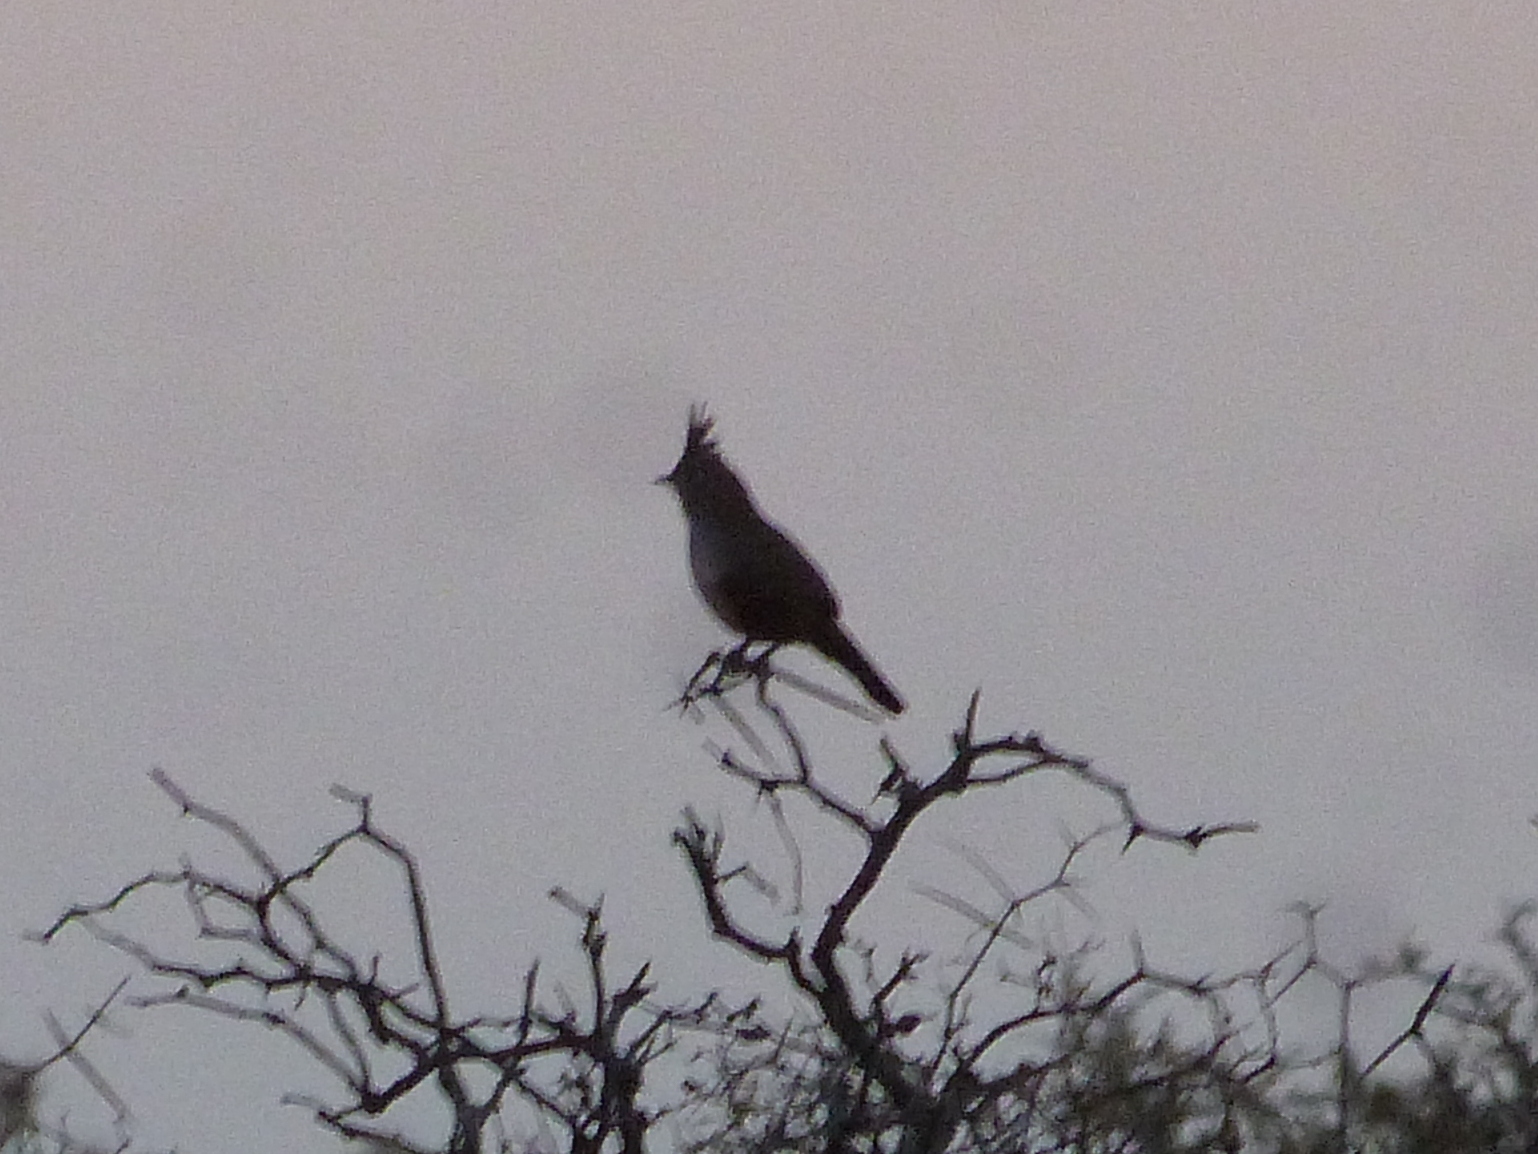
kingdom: Animalia
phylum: Chordata
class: Aves
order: Passeriformes
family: Rhinocryptidae
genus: Rhinocrypta
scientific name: Rhinocrypta lanceolata
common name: Crested gallito
